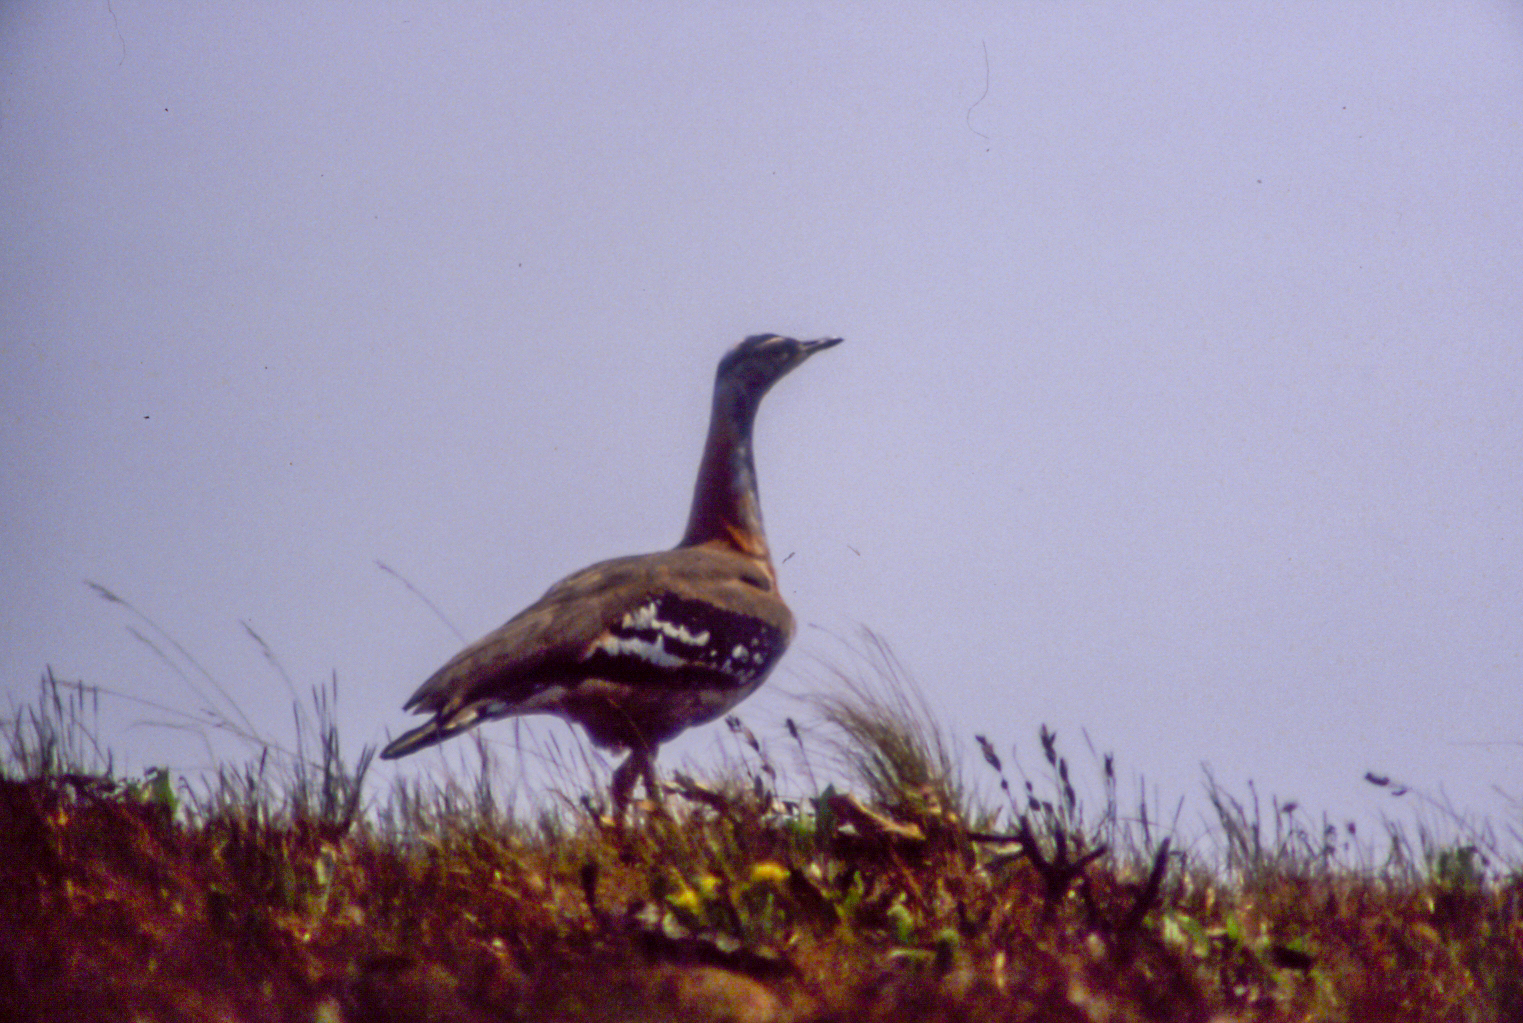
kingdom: Animalia
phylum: Chordata
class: Aves
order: Otidiformes
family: Otididae
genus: Neotis
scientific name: Neotis denhami
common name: Denham's bustard
